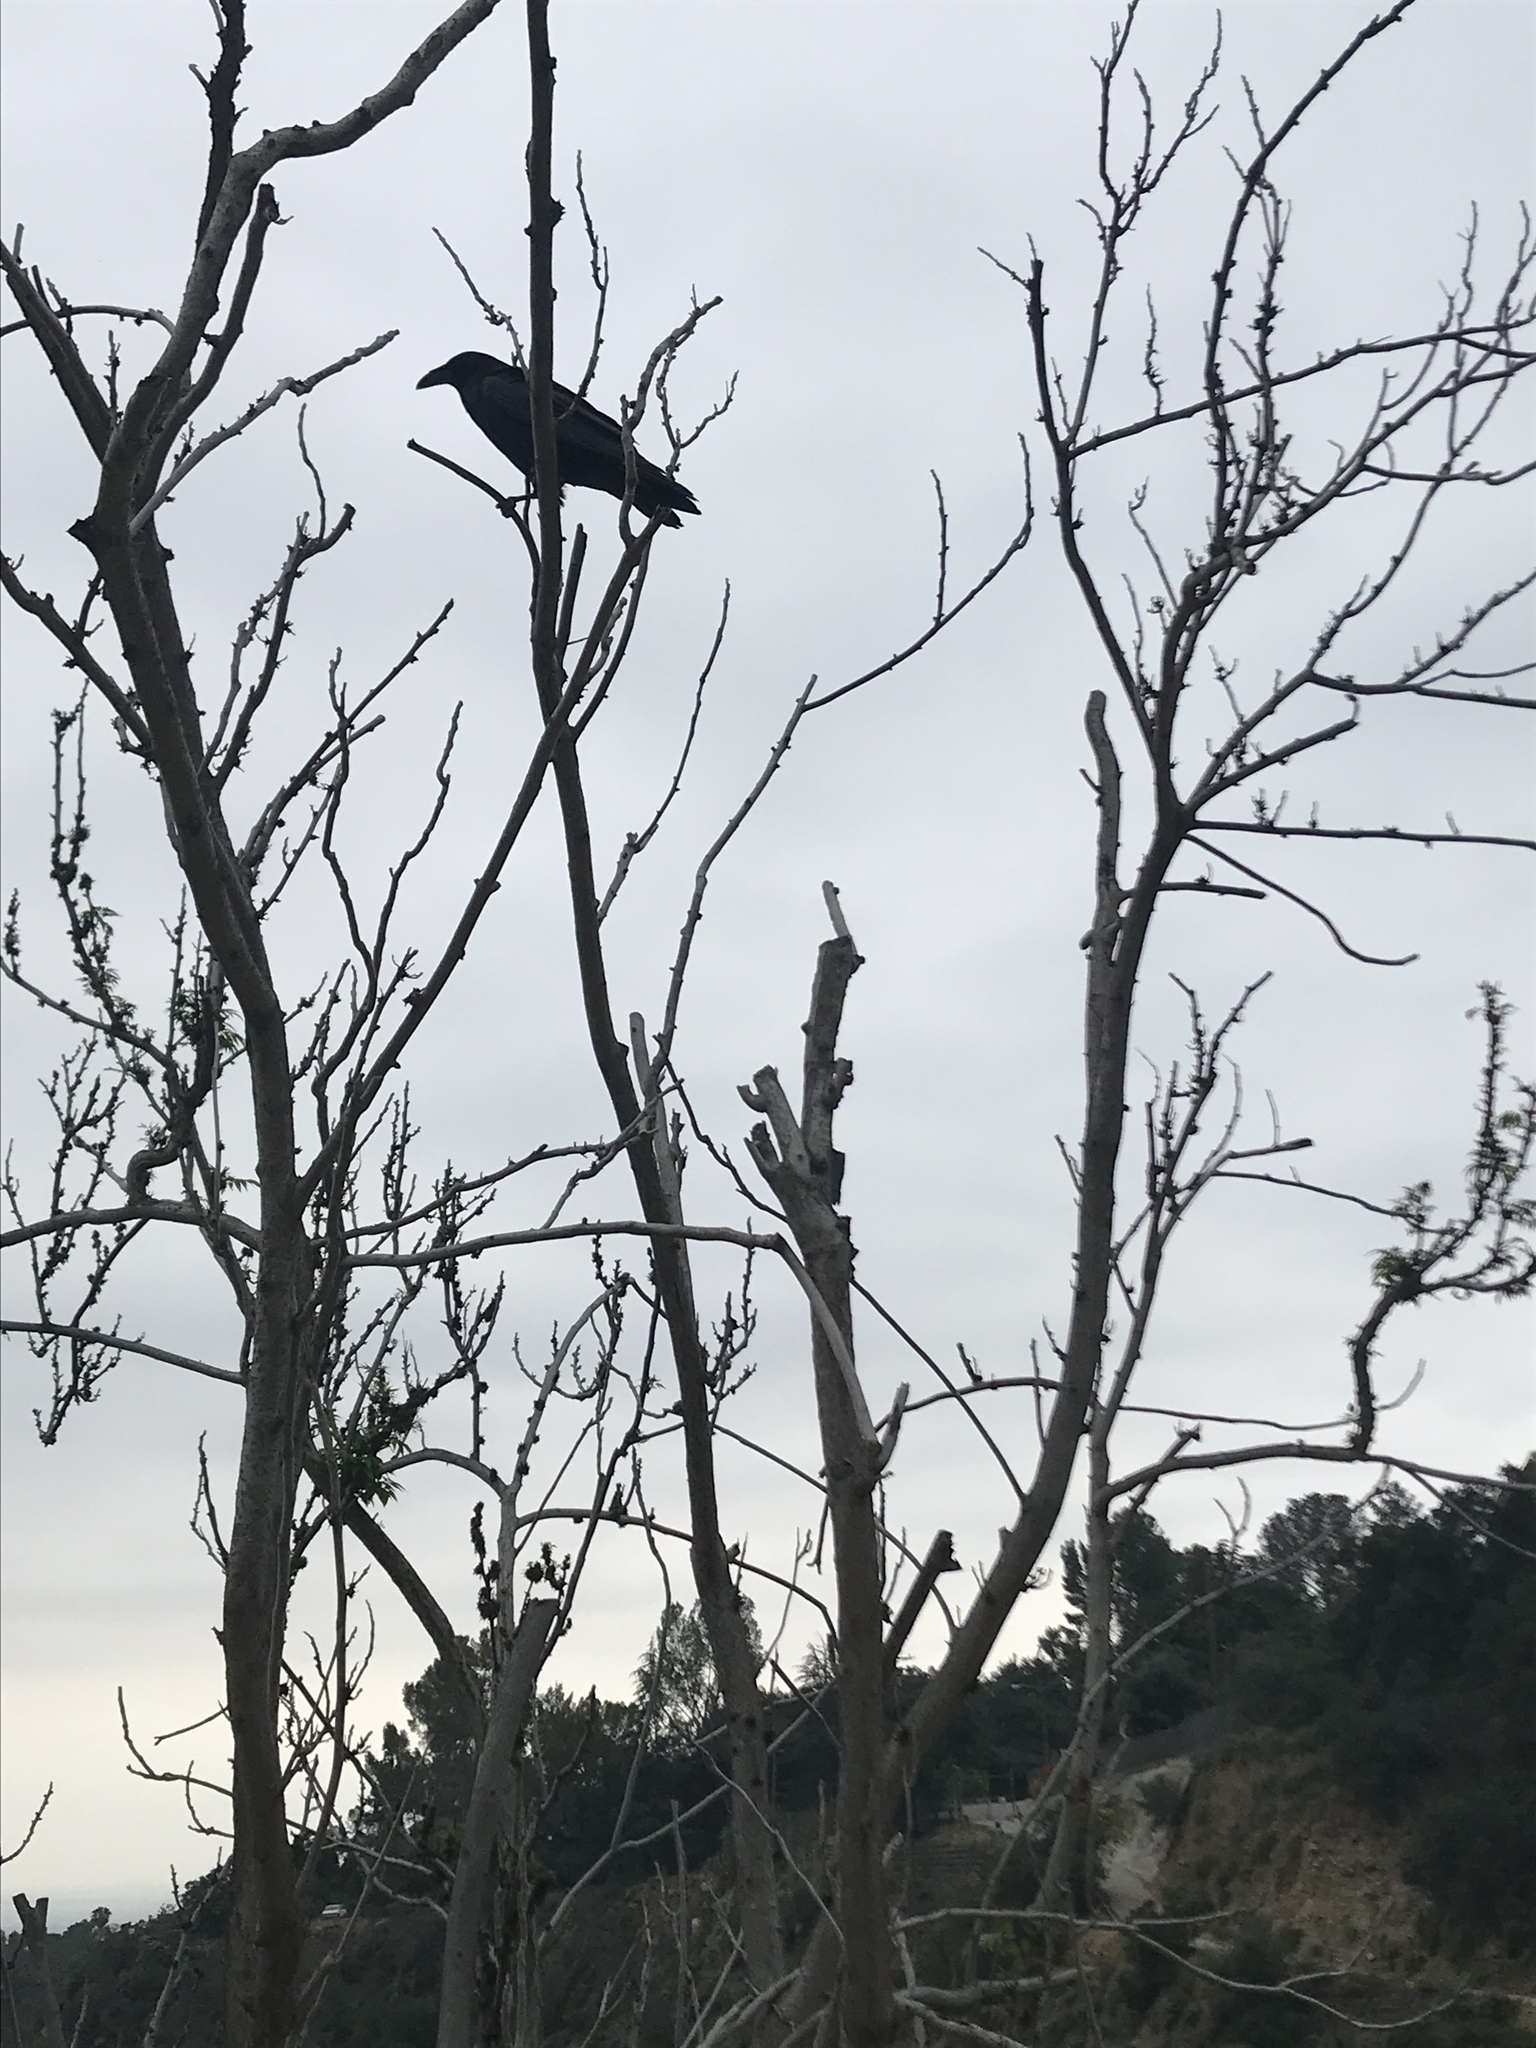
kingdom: Animalia
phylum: Chordata
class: Aves
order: Passeriformes
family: Corvidae
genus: Corvus
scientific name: Corvus corax
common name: Common raven
